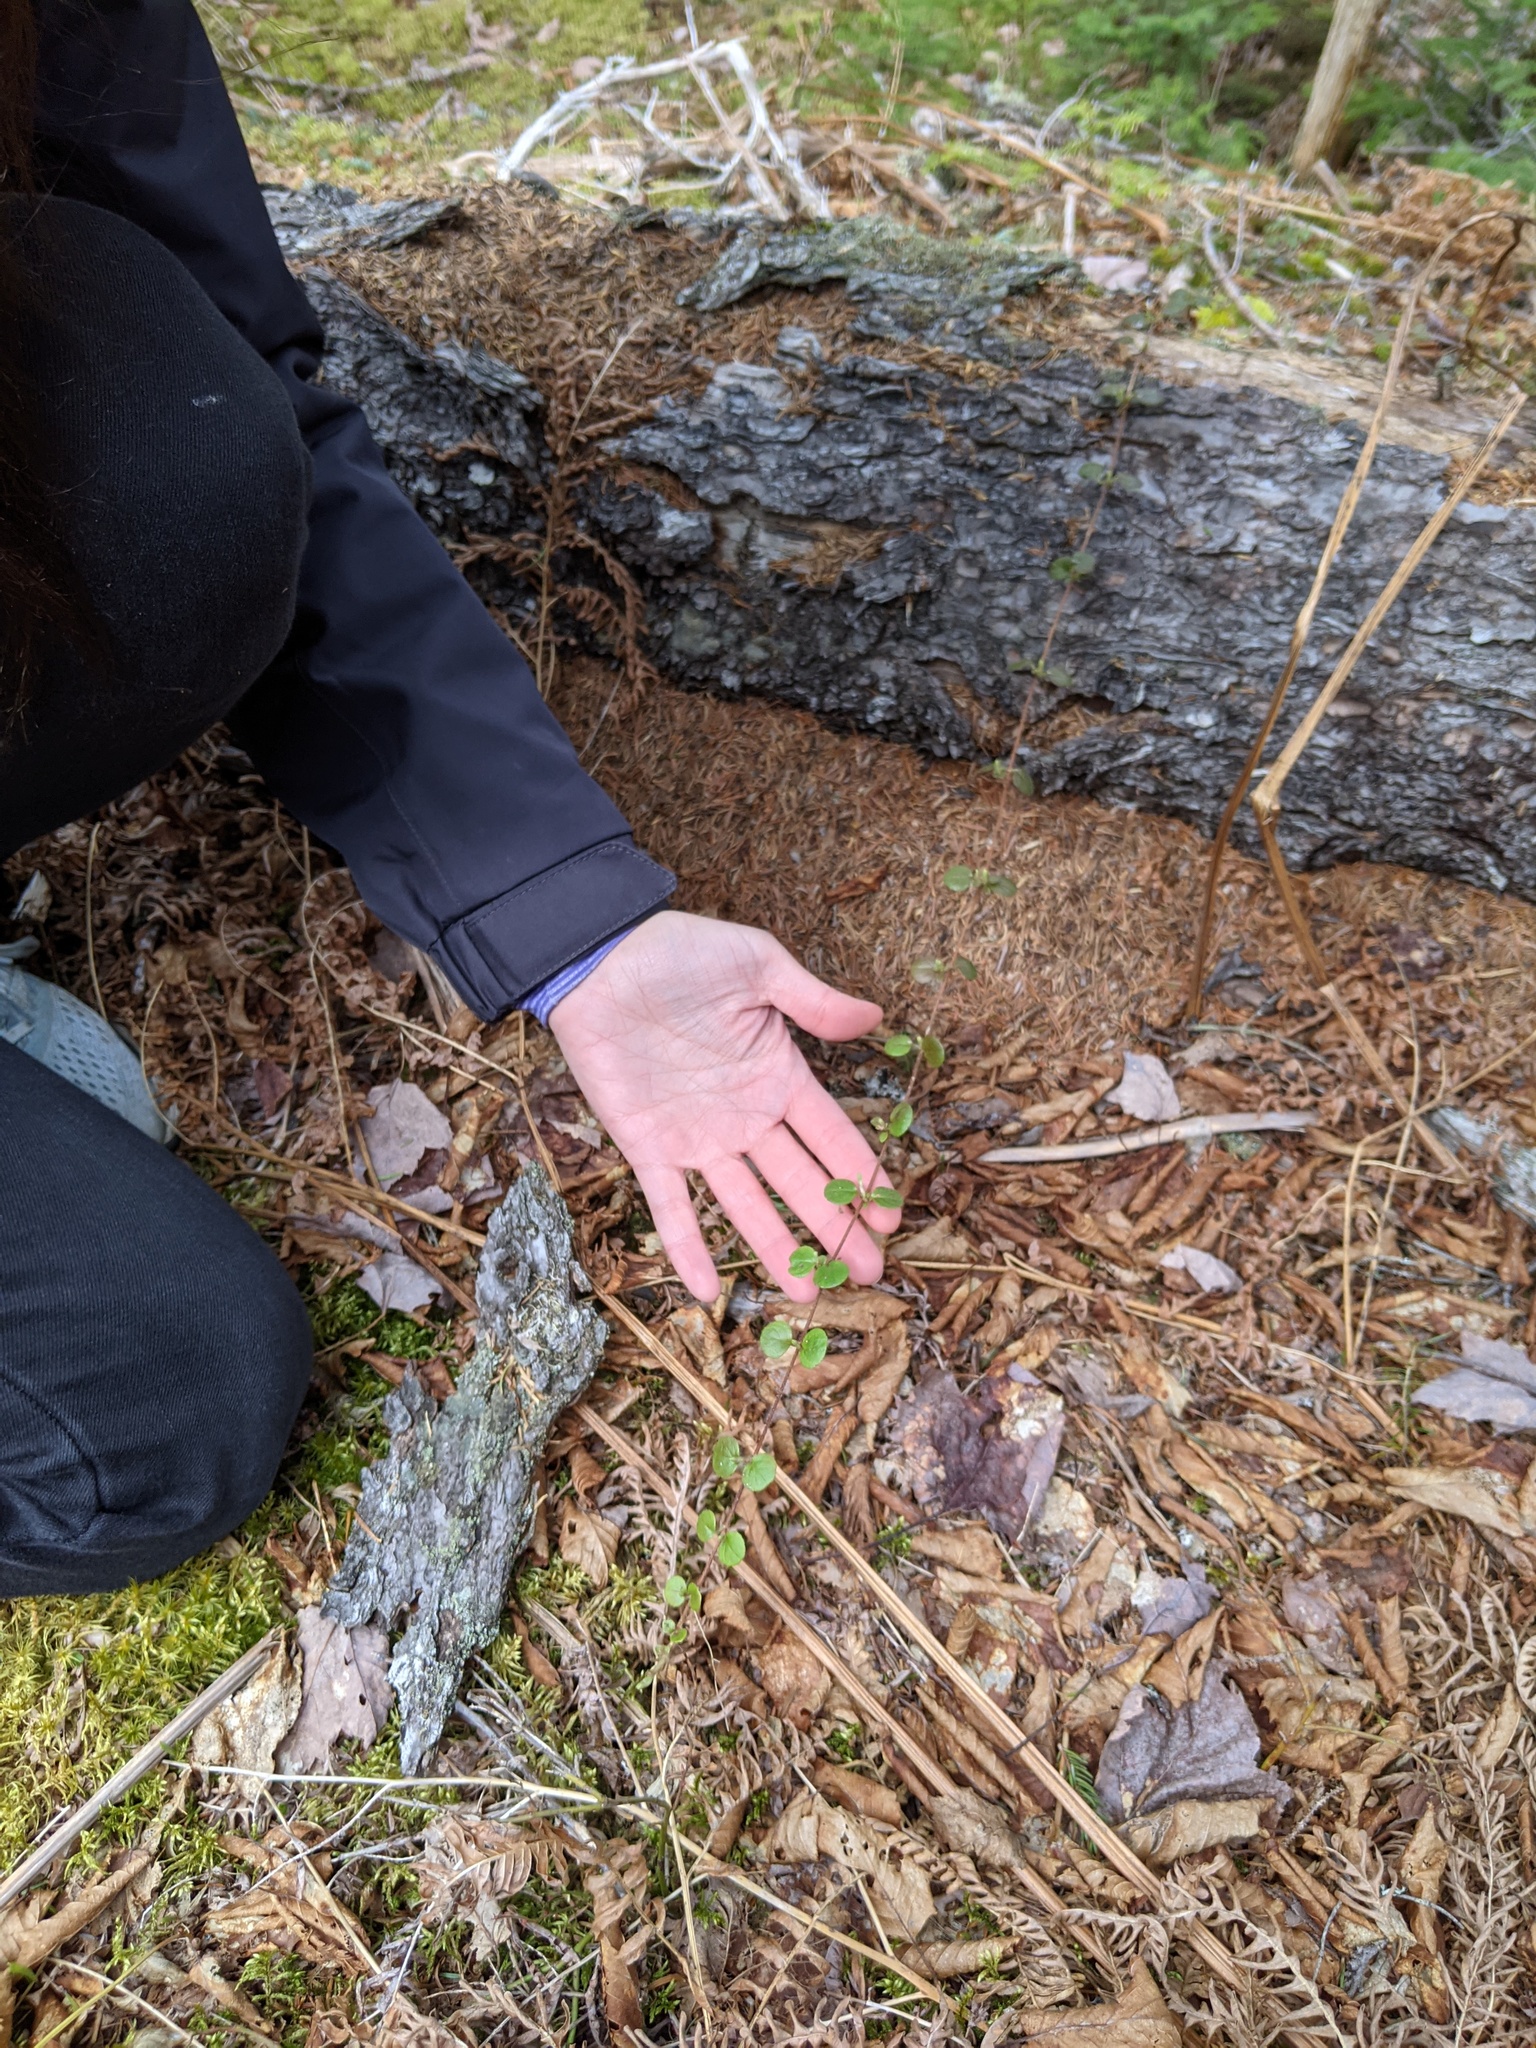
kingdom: Plantae
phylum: Tracheophyta
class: Magnoliopsida
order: Dipsacales
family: Caprifoliaceae
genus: Linnaea
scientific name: Linnaea borealis
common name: Twinflower
